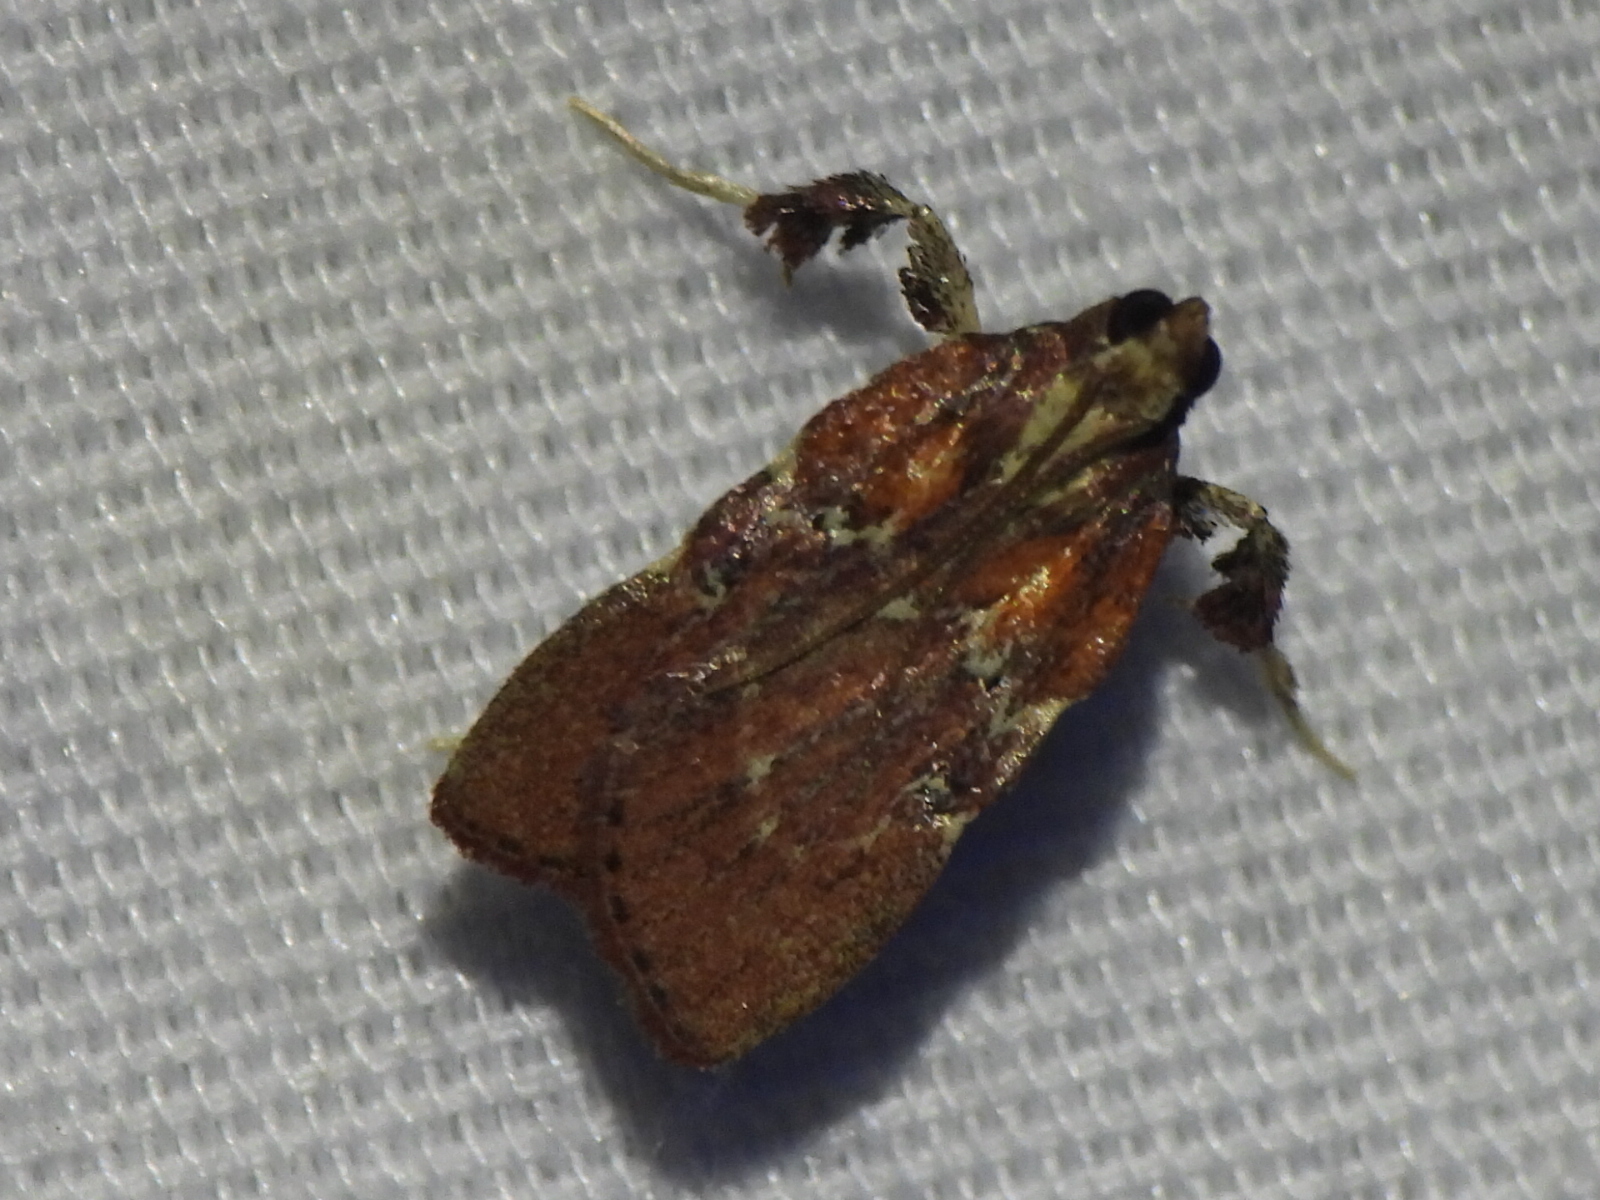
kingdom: Animalia
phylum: Arthropoda
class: Insecta
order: Lepidoptera
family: Pyralidae
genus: Galasa
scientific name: Galasa nigrinodis
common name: Boxwood leaftier moth
